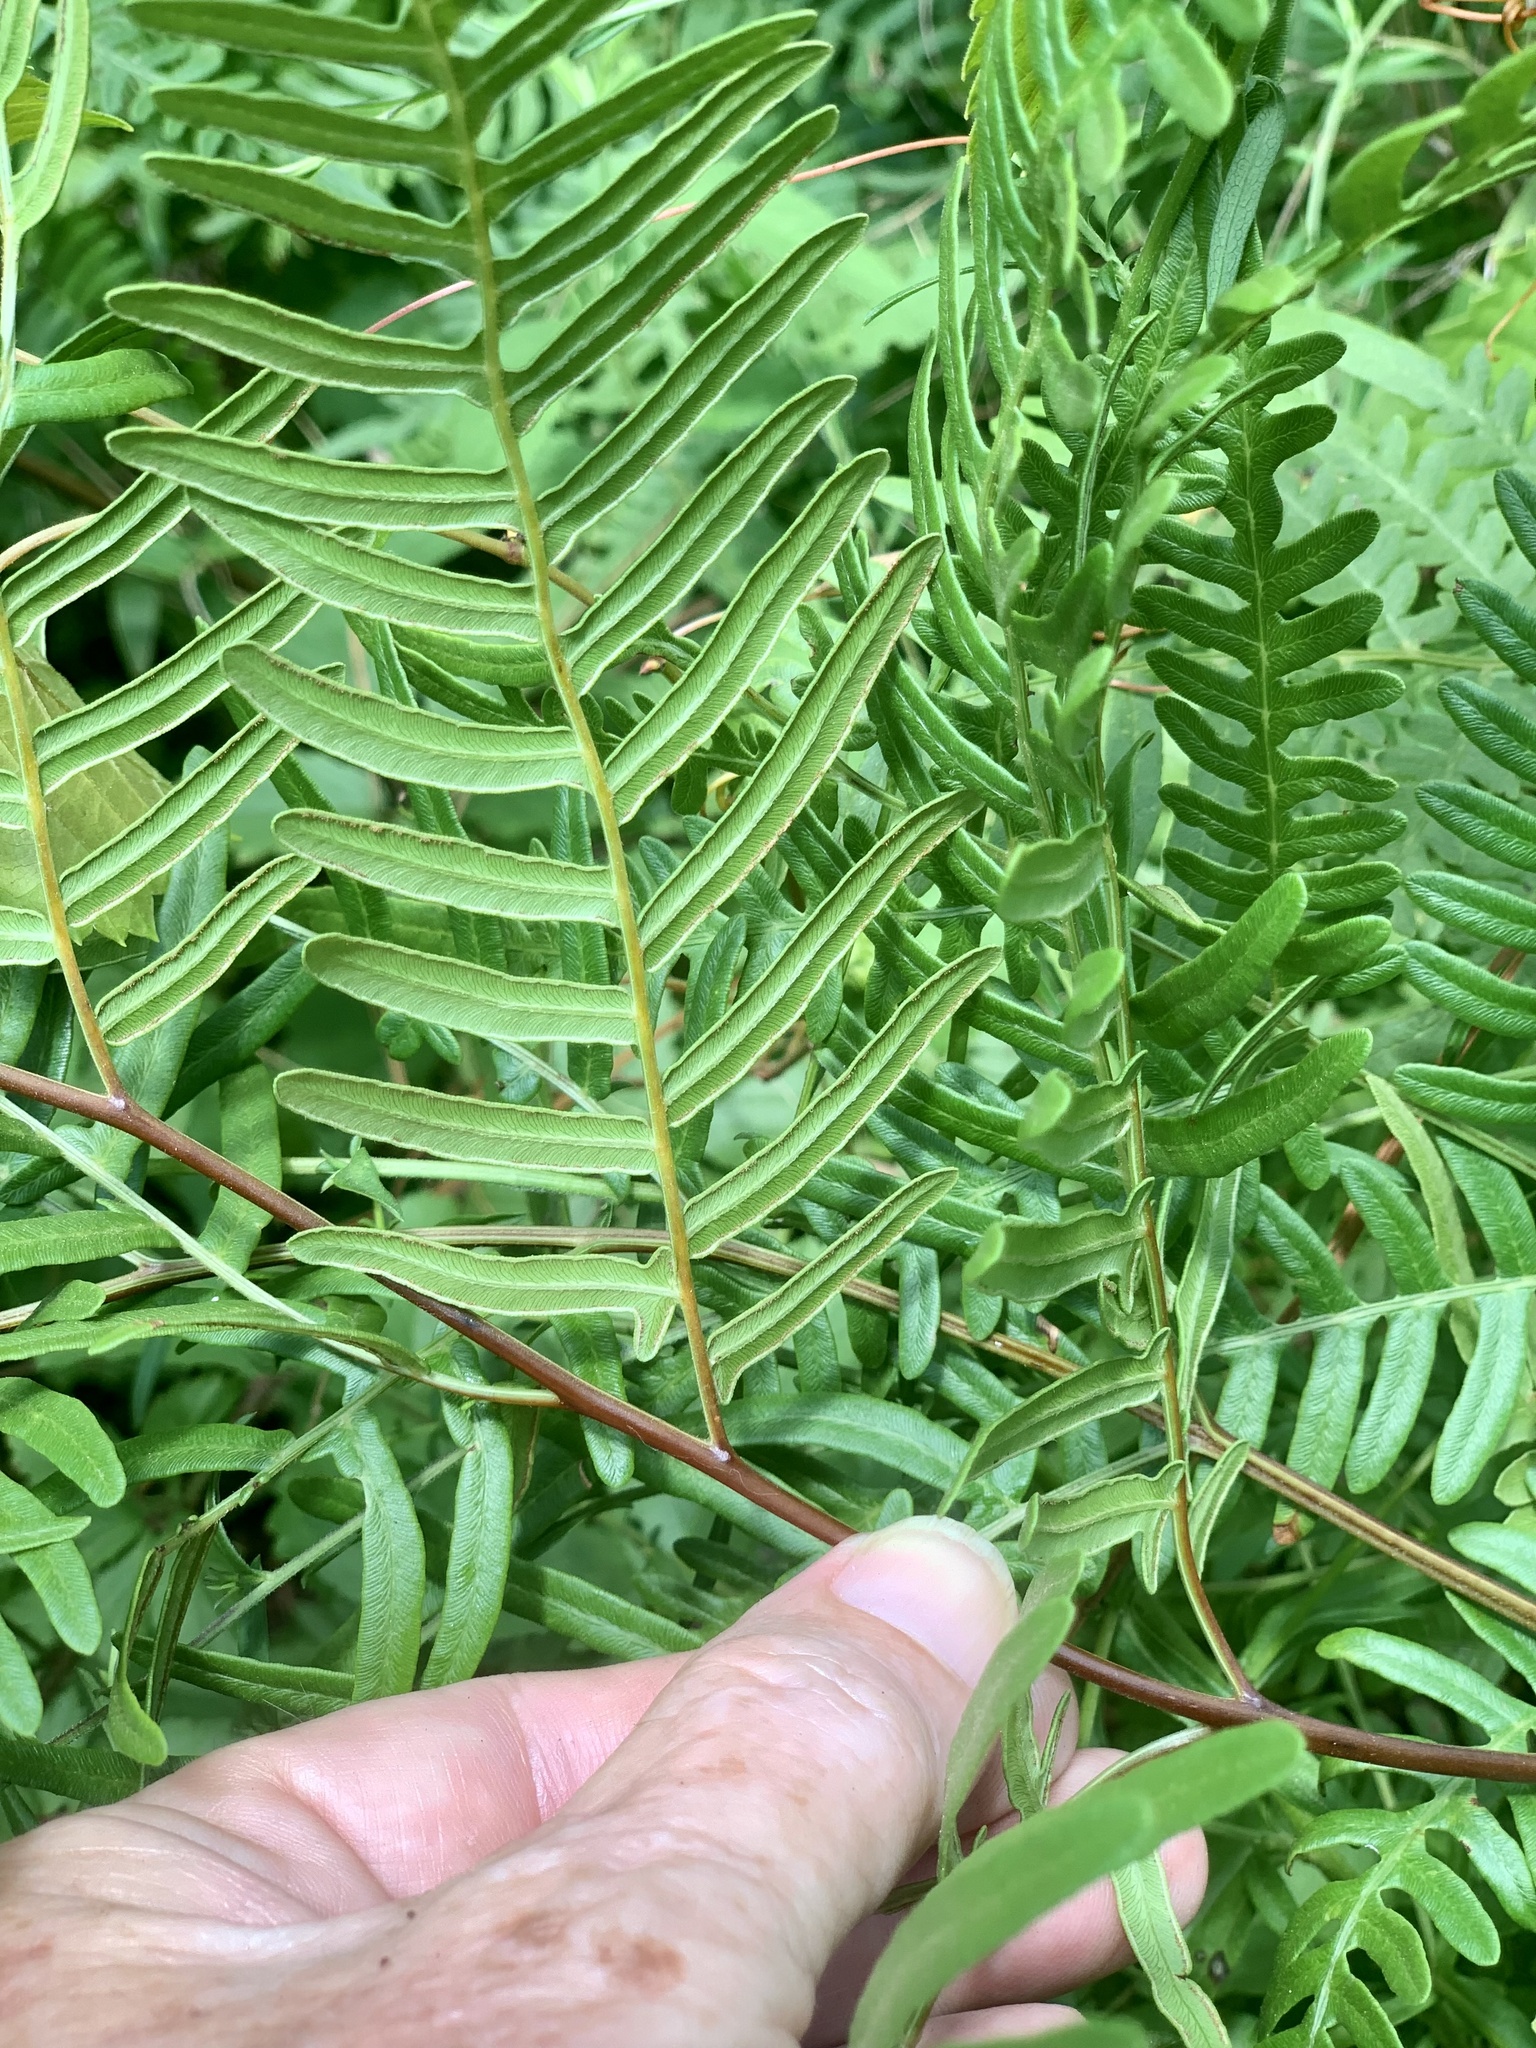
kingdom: Plantae
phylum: Tracheophyta
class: Polypodiopsida
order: Polypodiales
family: Dennstaedtiaceae
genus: Pteridium
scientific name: Pteridium aquilinum
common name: Bracken
